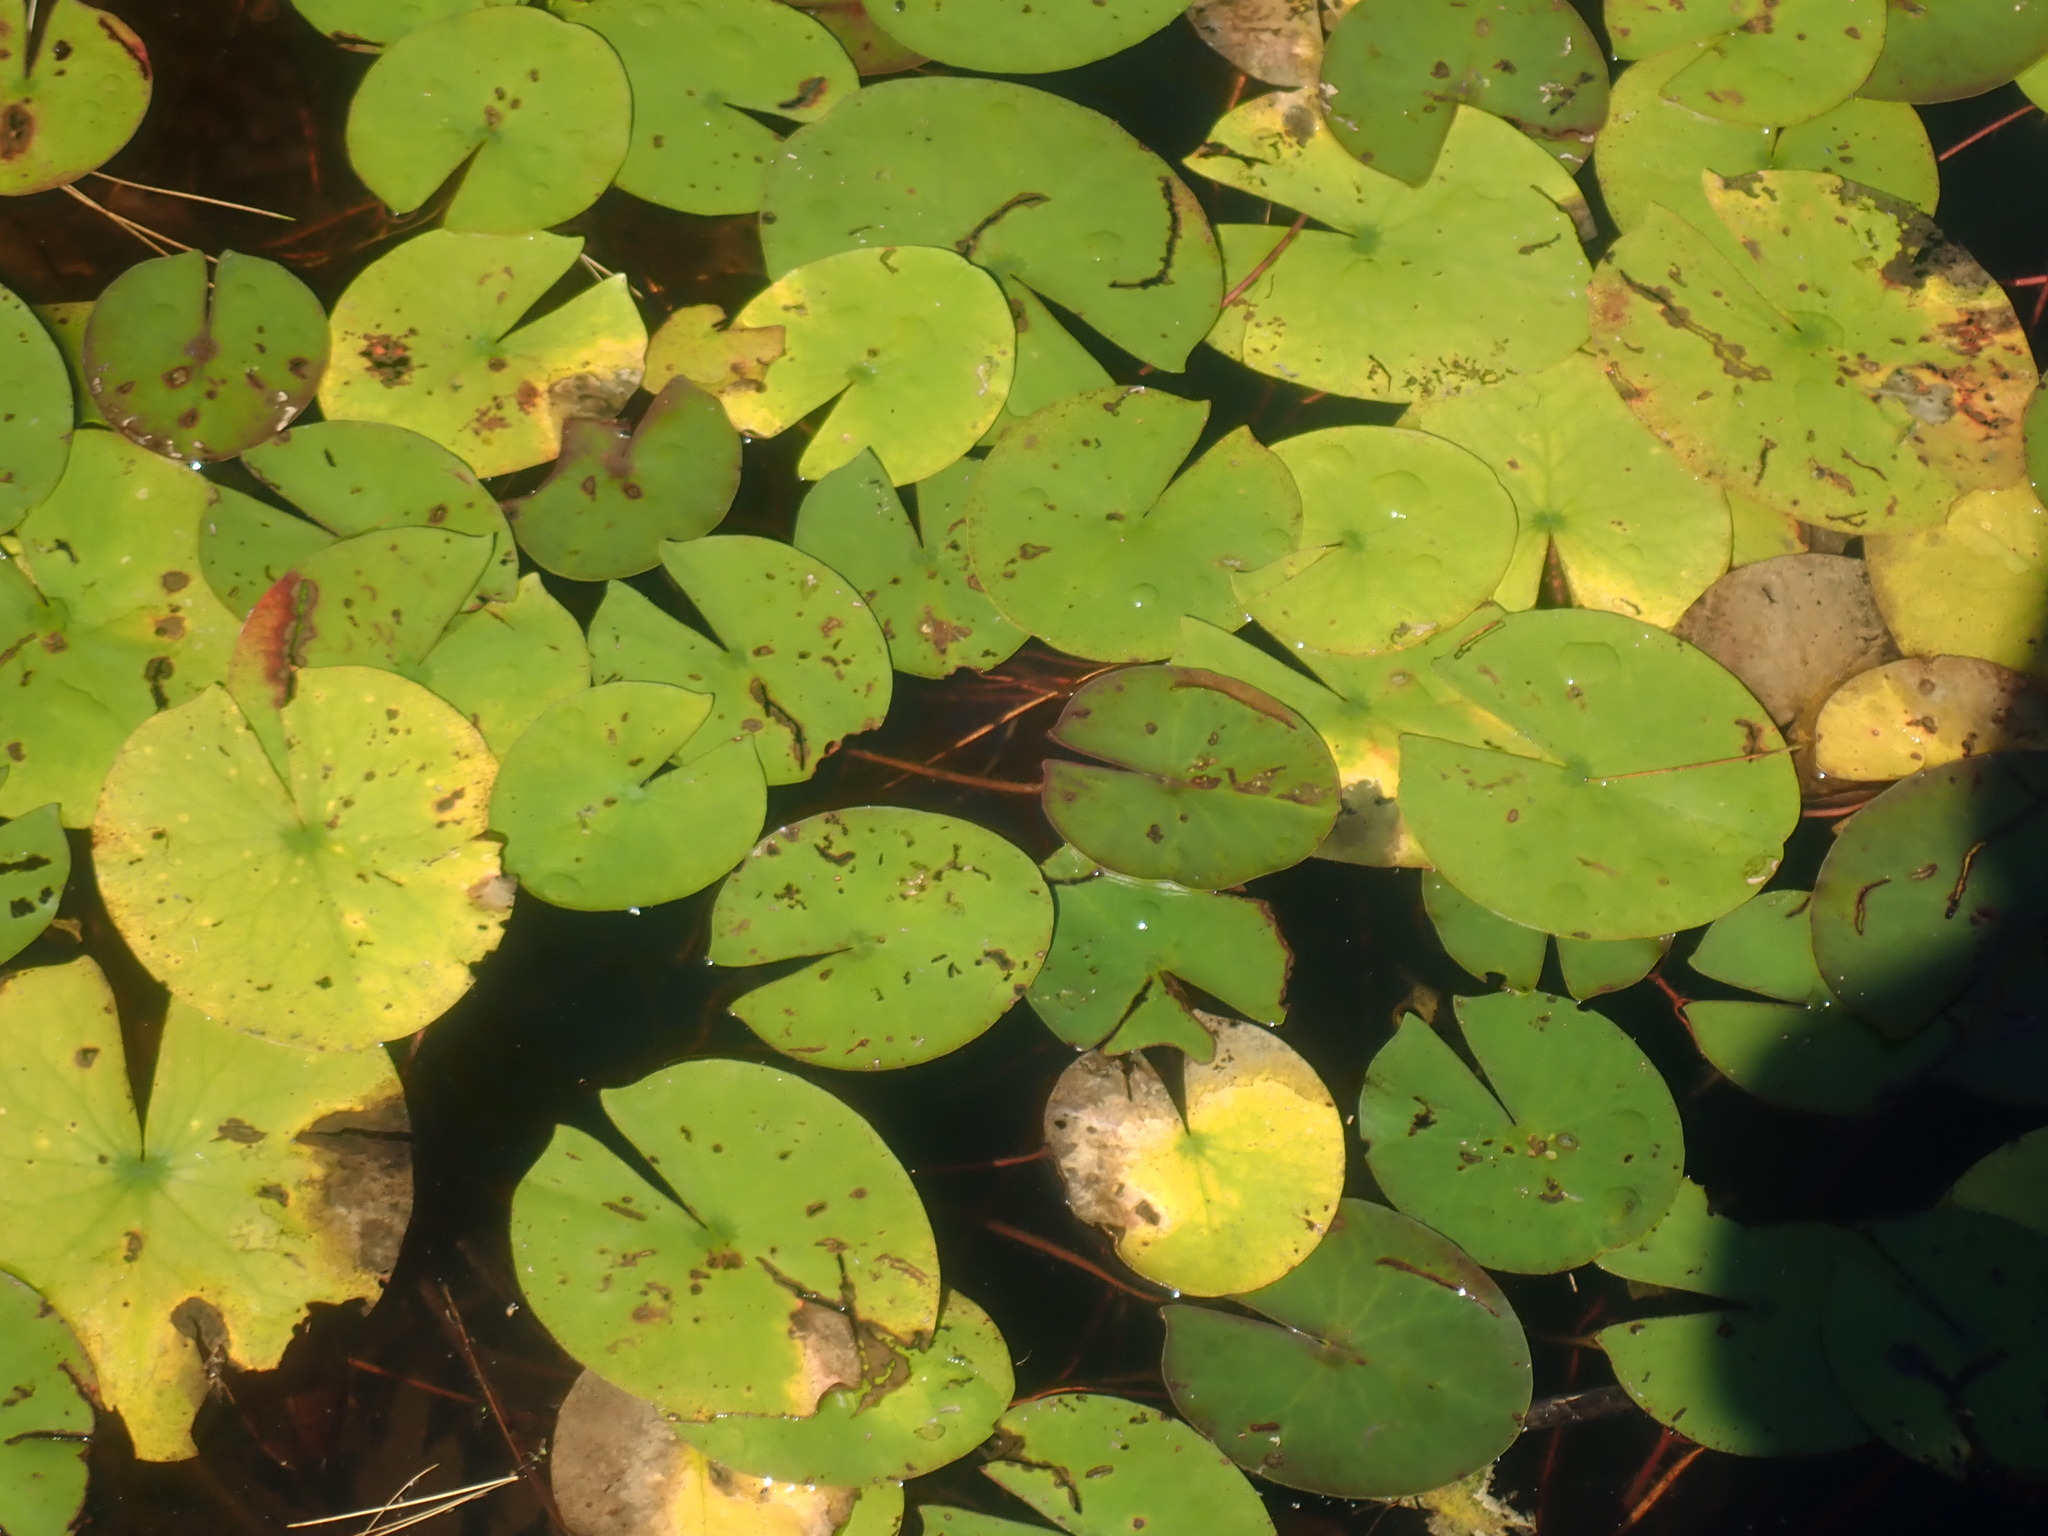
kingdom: Plantae
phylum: Tracheophyta
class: Magnoliopsida
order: Nymphaeales
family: Nymphaeaceae
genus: Nymphaea
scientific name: Nymphaea odorata
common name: Fragrant water-lily
